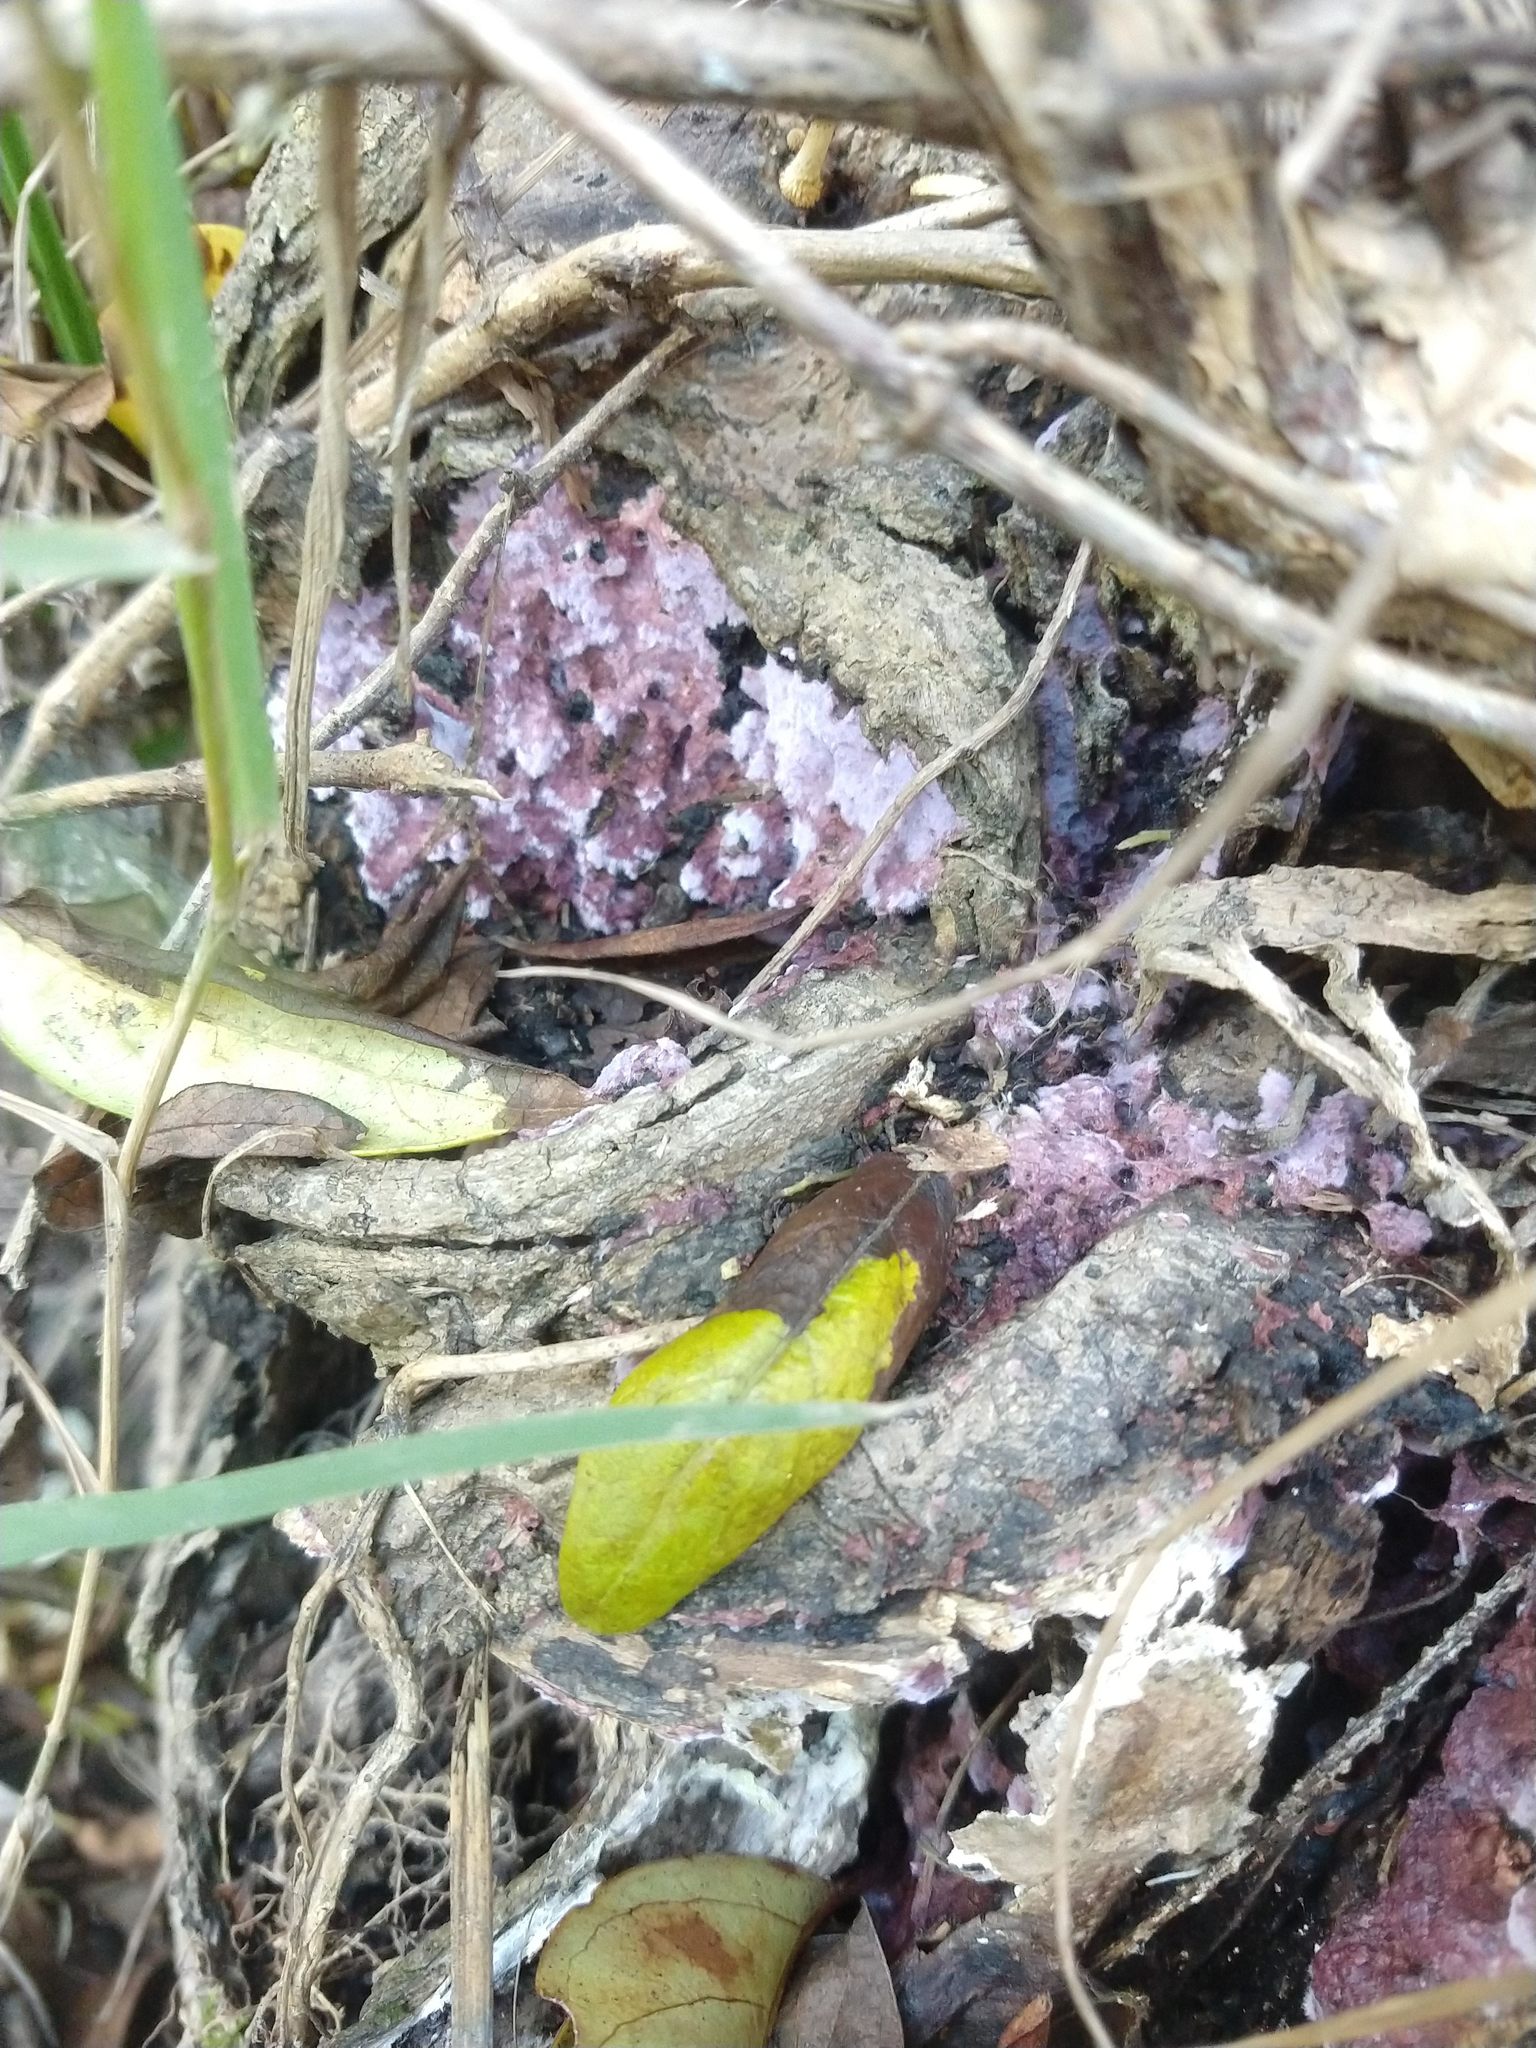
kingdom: Fungi
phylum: Basidiomycota
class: Agaricomycetes
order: Agaricales
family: Cyphellaceae
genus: Chondrostereum
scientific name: Chondrostereum purpureum
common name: Silver leaf disease
